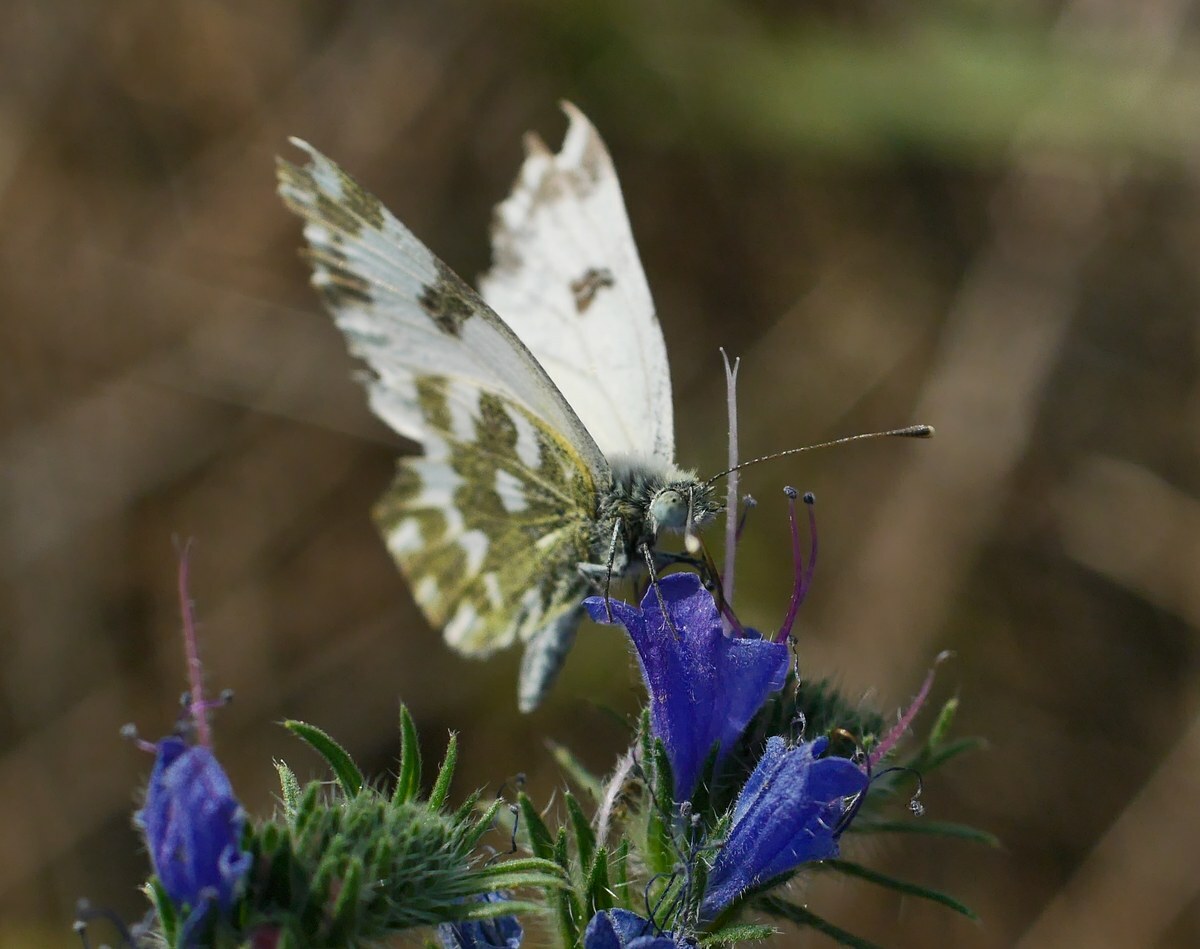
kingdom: Animalia
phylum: Arthropoda
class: Insecta
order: Lepidoptera
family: Pieridae
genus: Pontia
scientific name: Pontia edusa
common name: Eastern bath white
